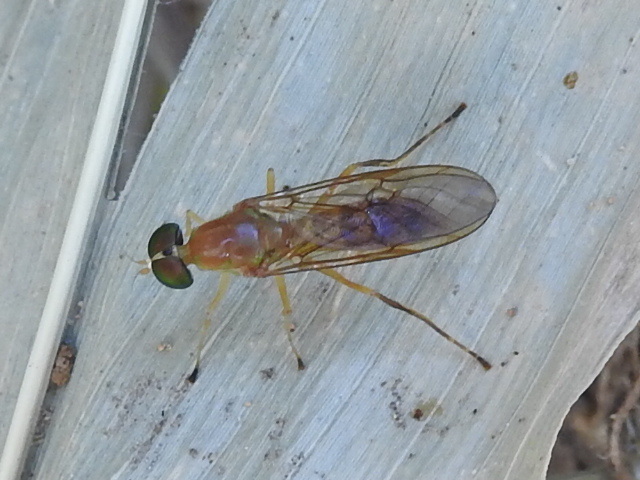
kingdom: Animalia
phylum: Arthropoda
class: Insecta
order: Diptera
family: Stratiomyidae
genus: Ptecticus
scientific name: Ptecticus trivittatus
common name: Compost fly
